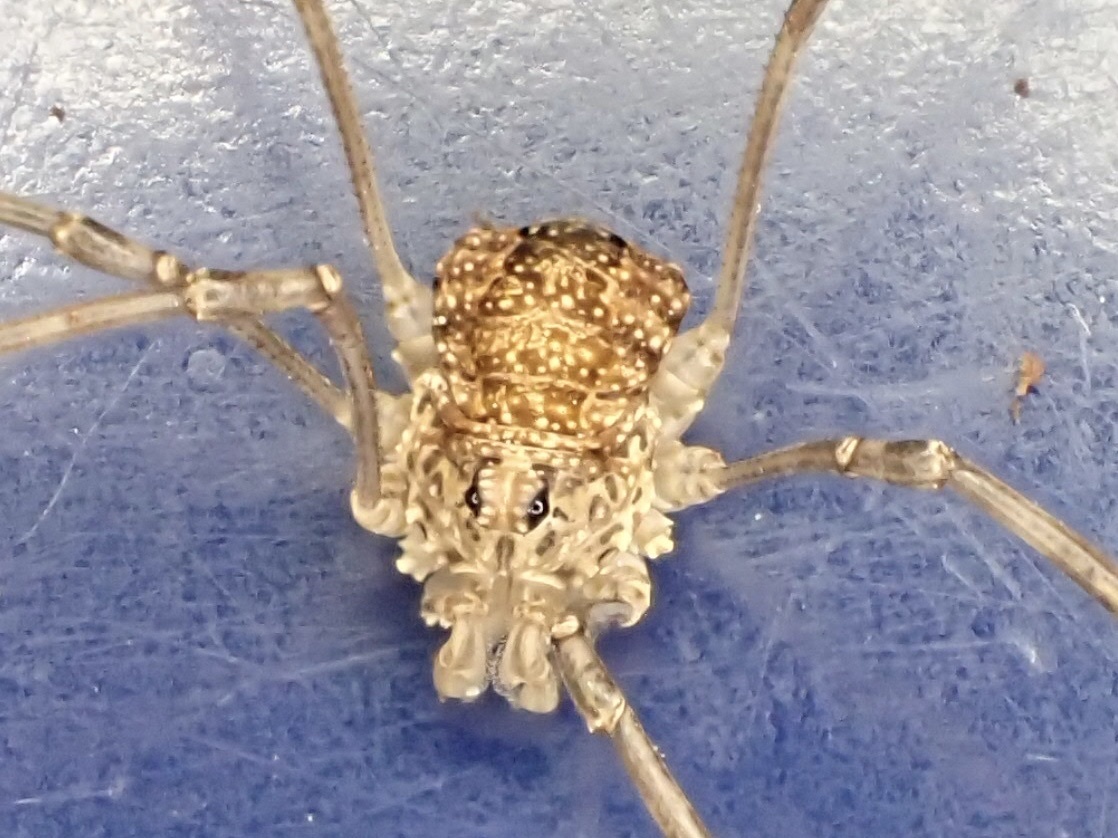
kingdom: Animalia
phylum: Arthropoda
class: Arachnida
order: Opiliones
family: Phalangiidae
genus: Rilaena
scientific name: Rilaena triangularis
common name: Spring harvestman
